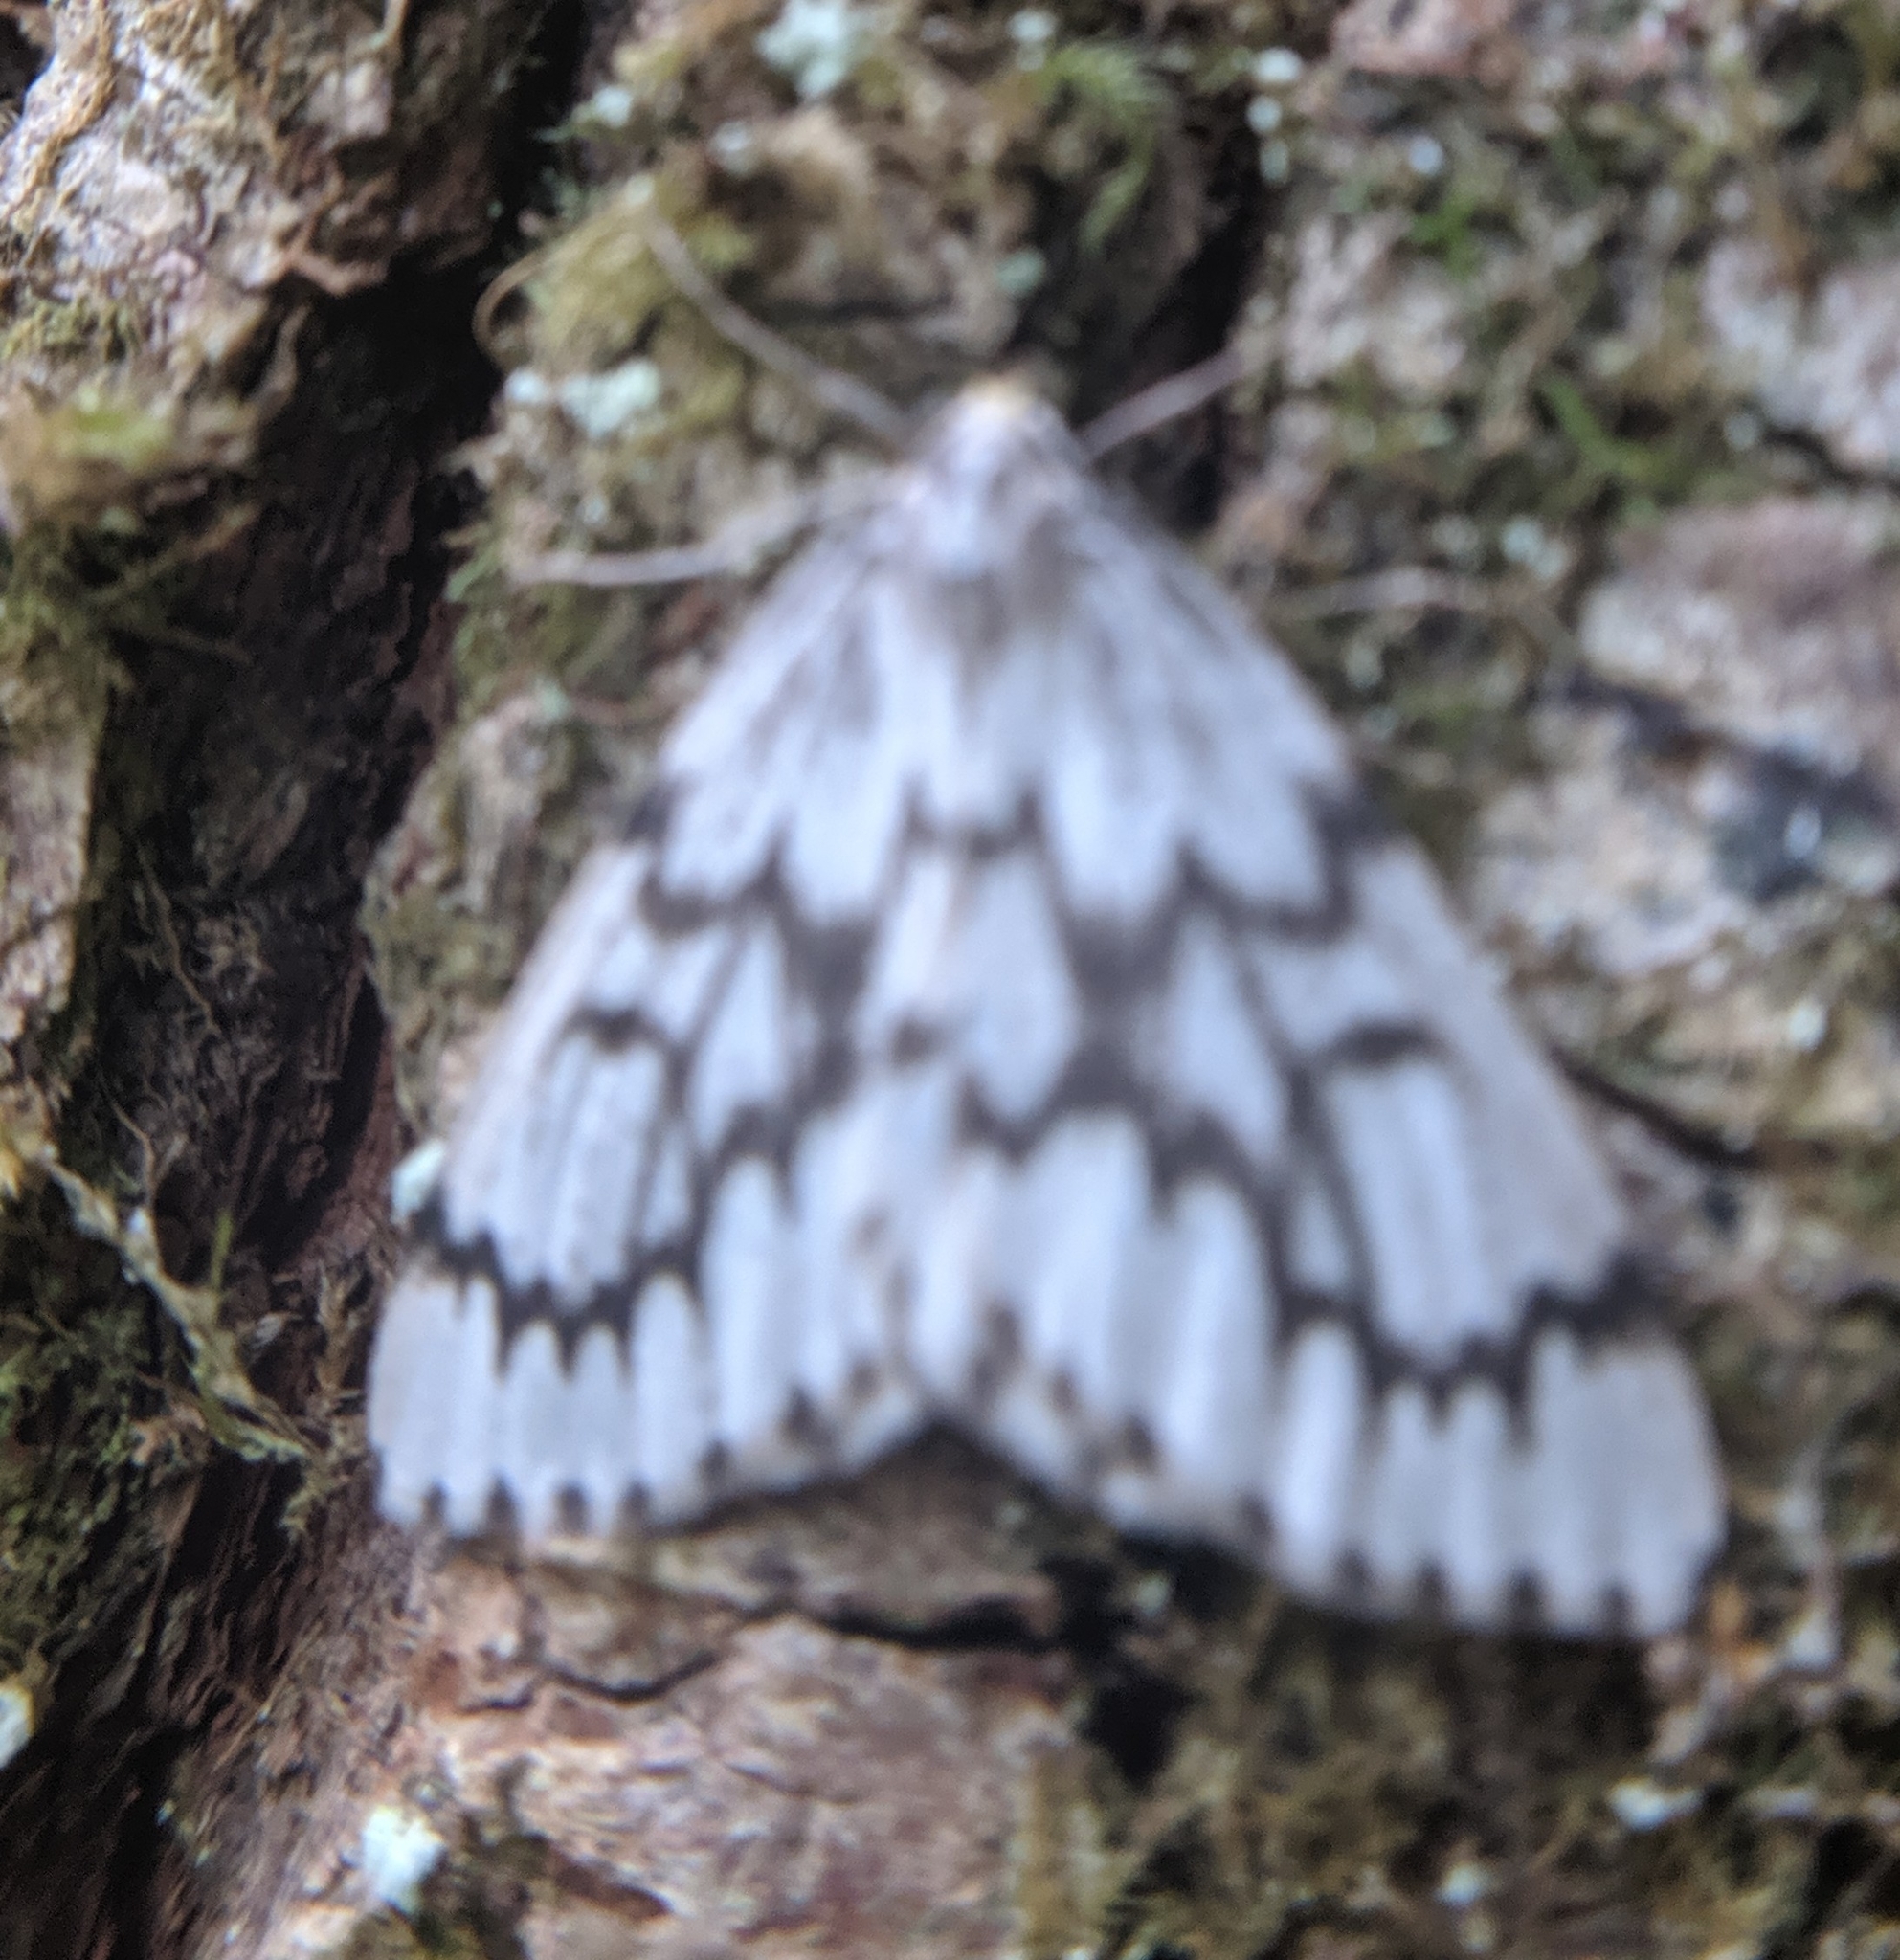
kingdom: Animalia
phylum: Arthropoda
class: Insecta
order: Lepidoptera
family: Geometridae
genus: Nepytia
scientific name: Nepytia phantasmaria
